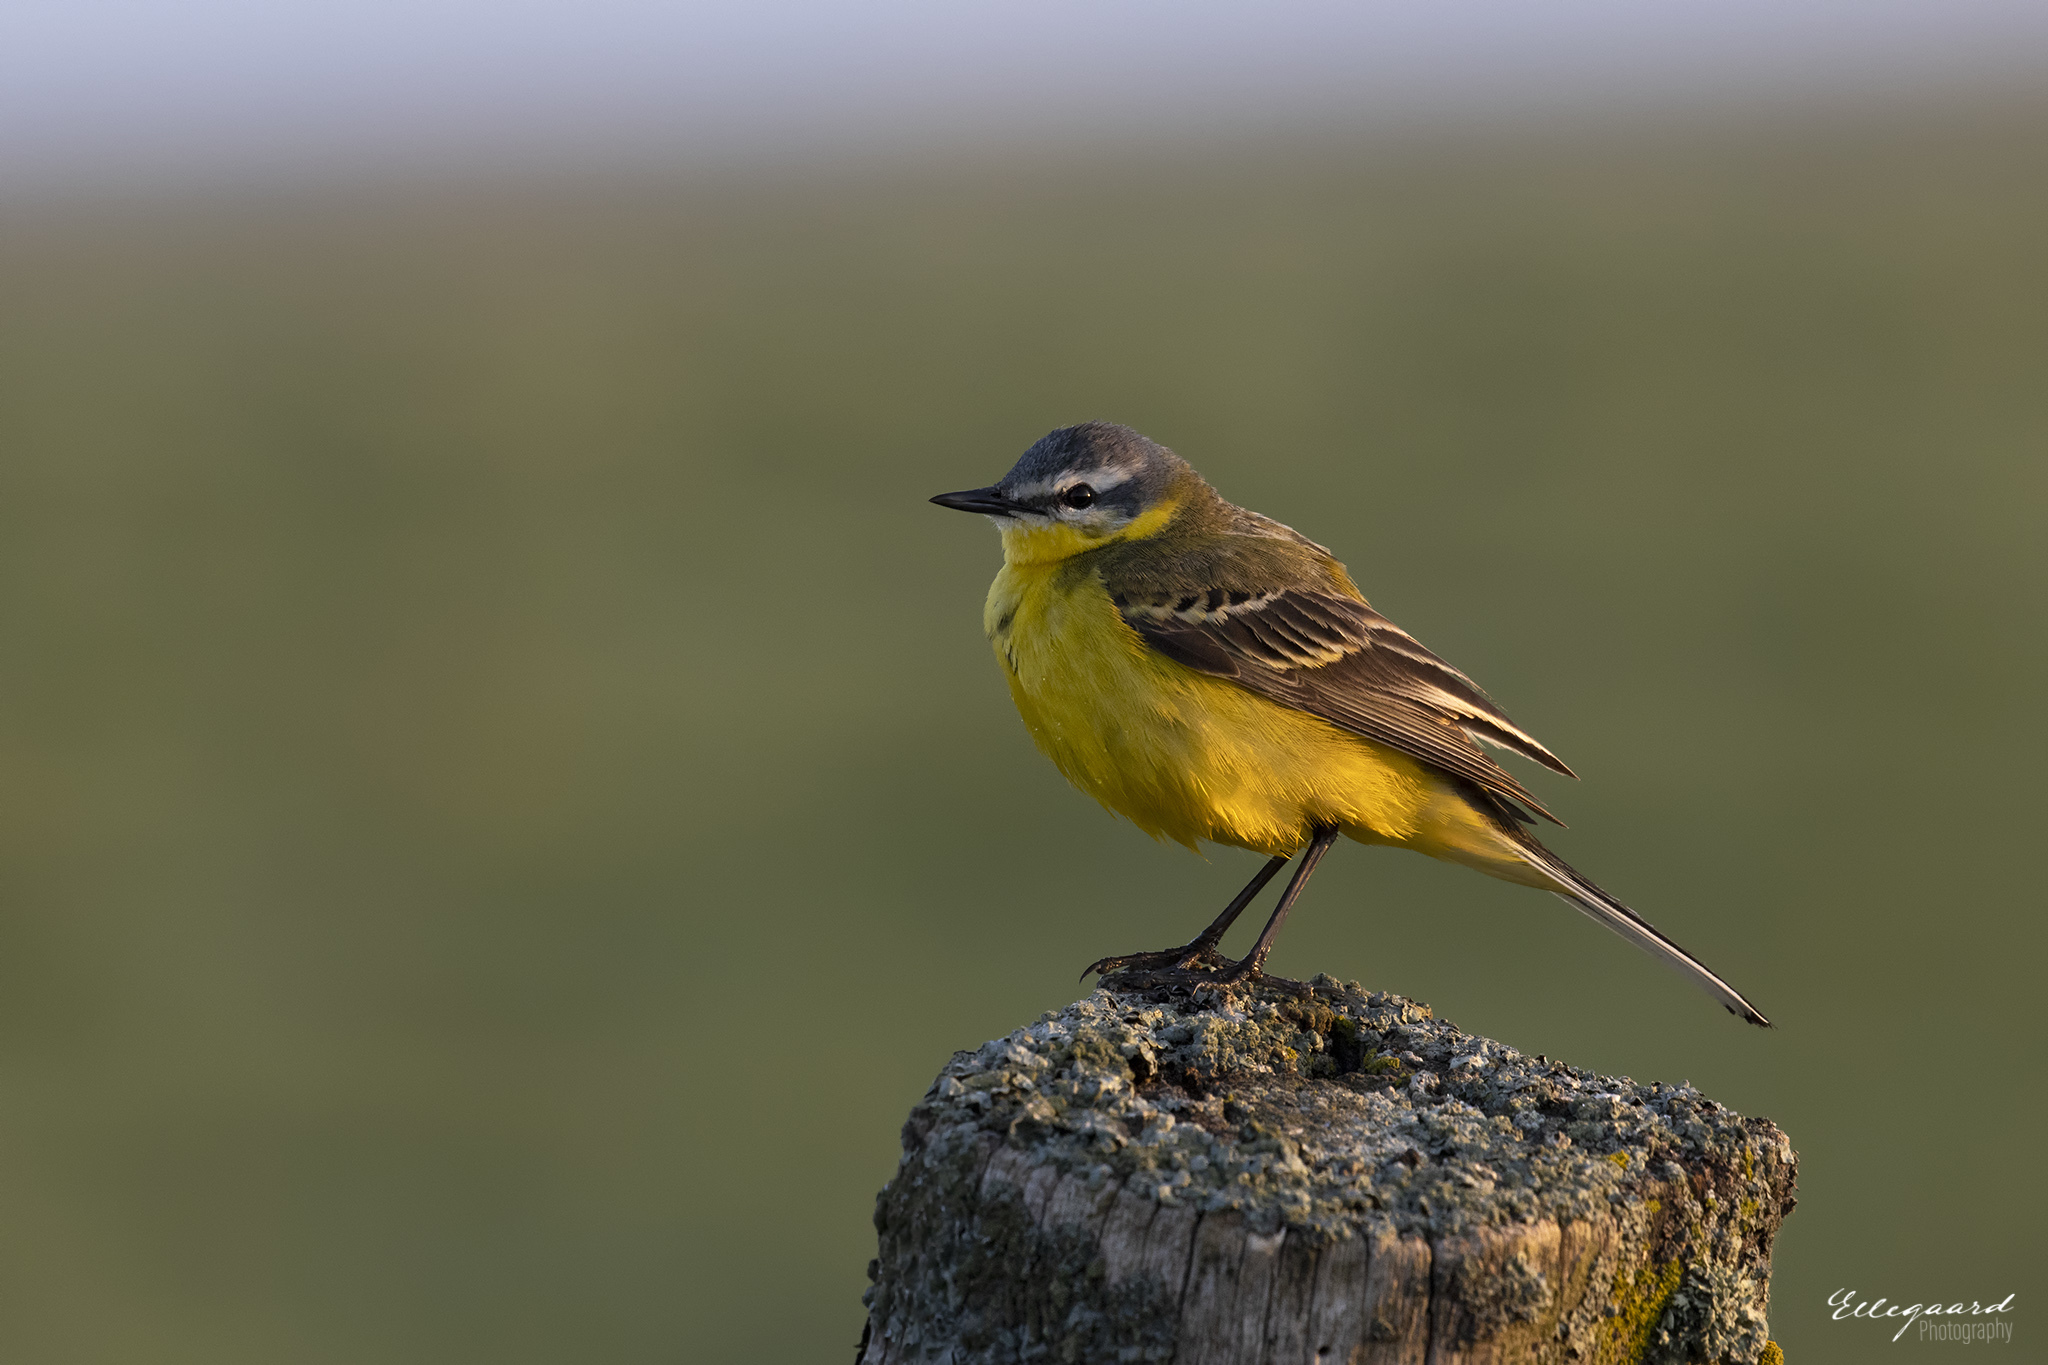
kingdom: Animalia
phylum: Chordata
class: Aves
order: Passeriformes
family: Motacillidae
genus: Motacilla
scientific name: Motacilla flava
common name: Western yellow wagtail
